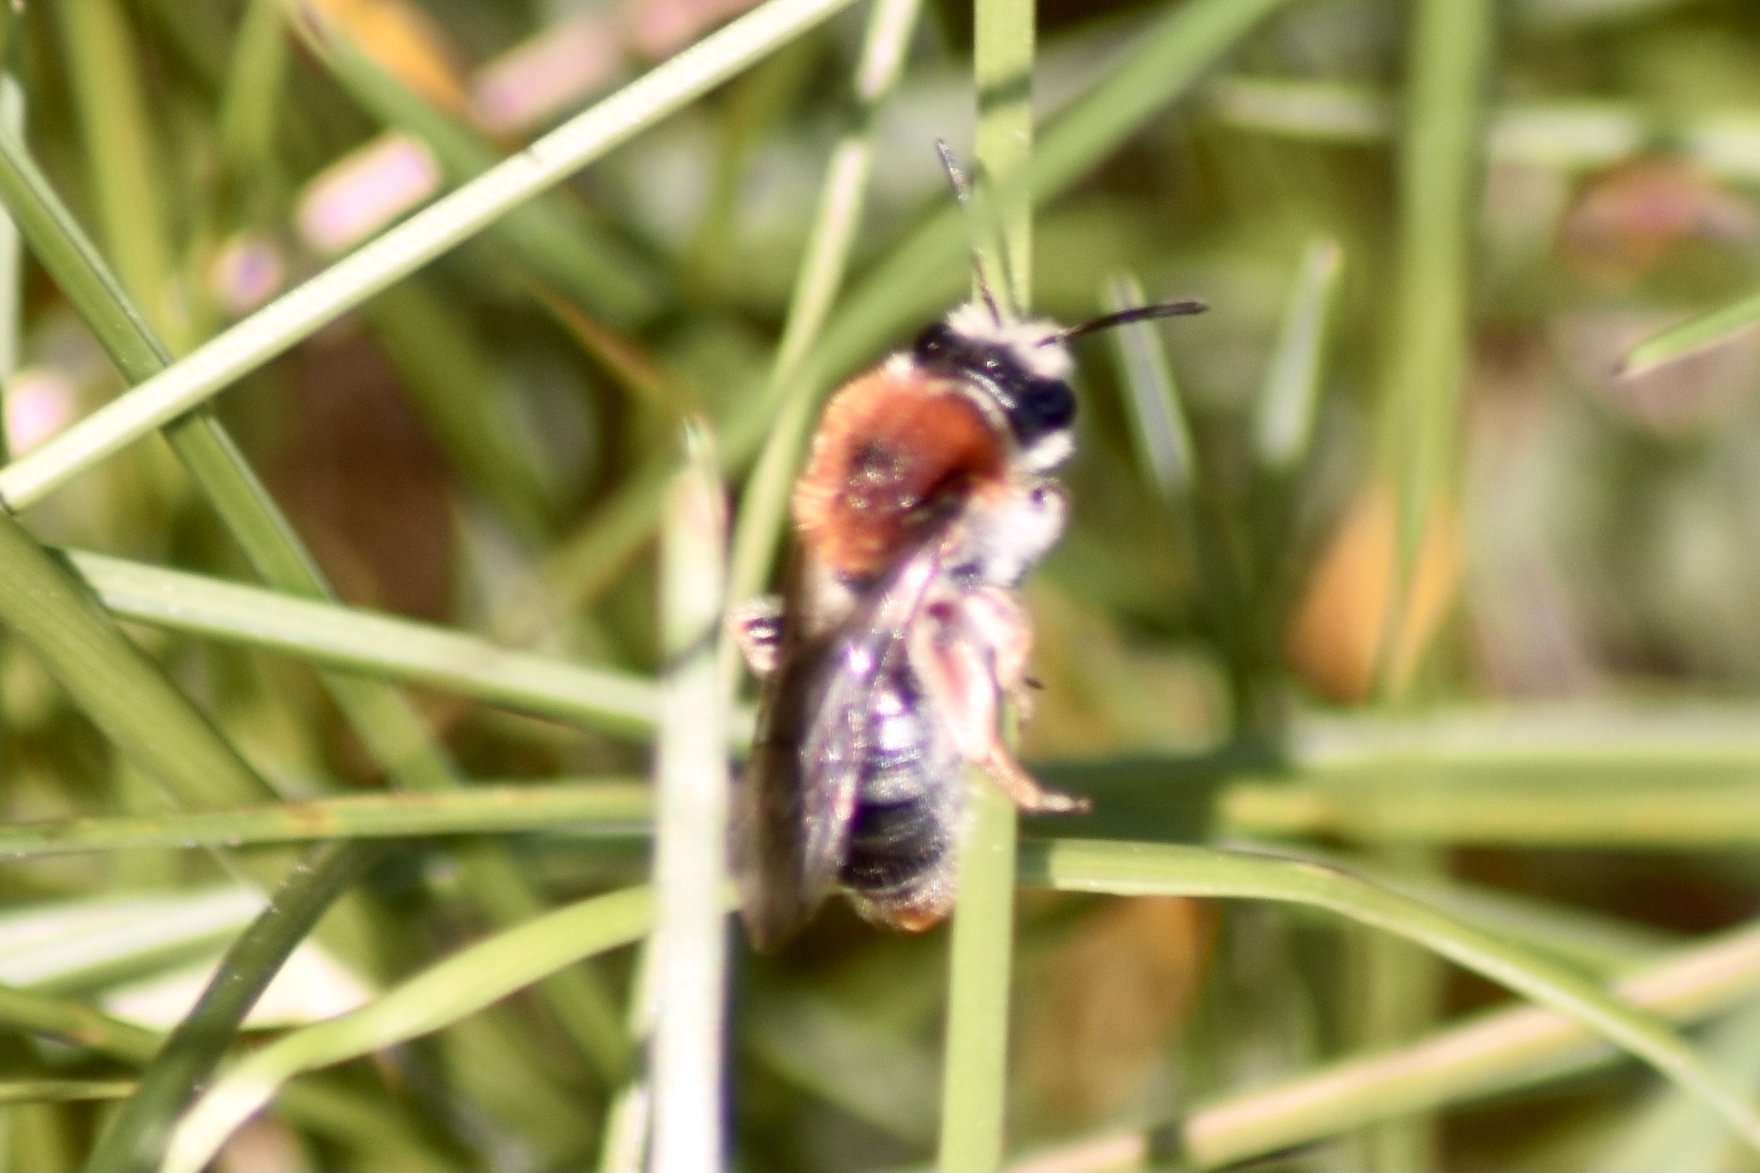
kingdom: Animalia
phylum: Arthropoda
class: Insecta
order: Hymenoptera
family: Andrenidae
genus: Andrena
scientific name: Andrena haemorrhoa
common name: Early mining bee
